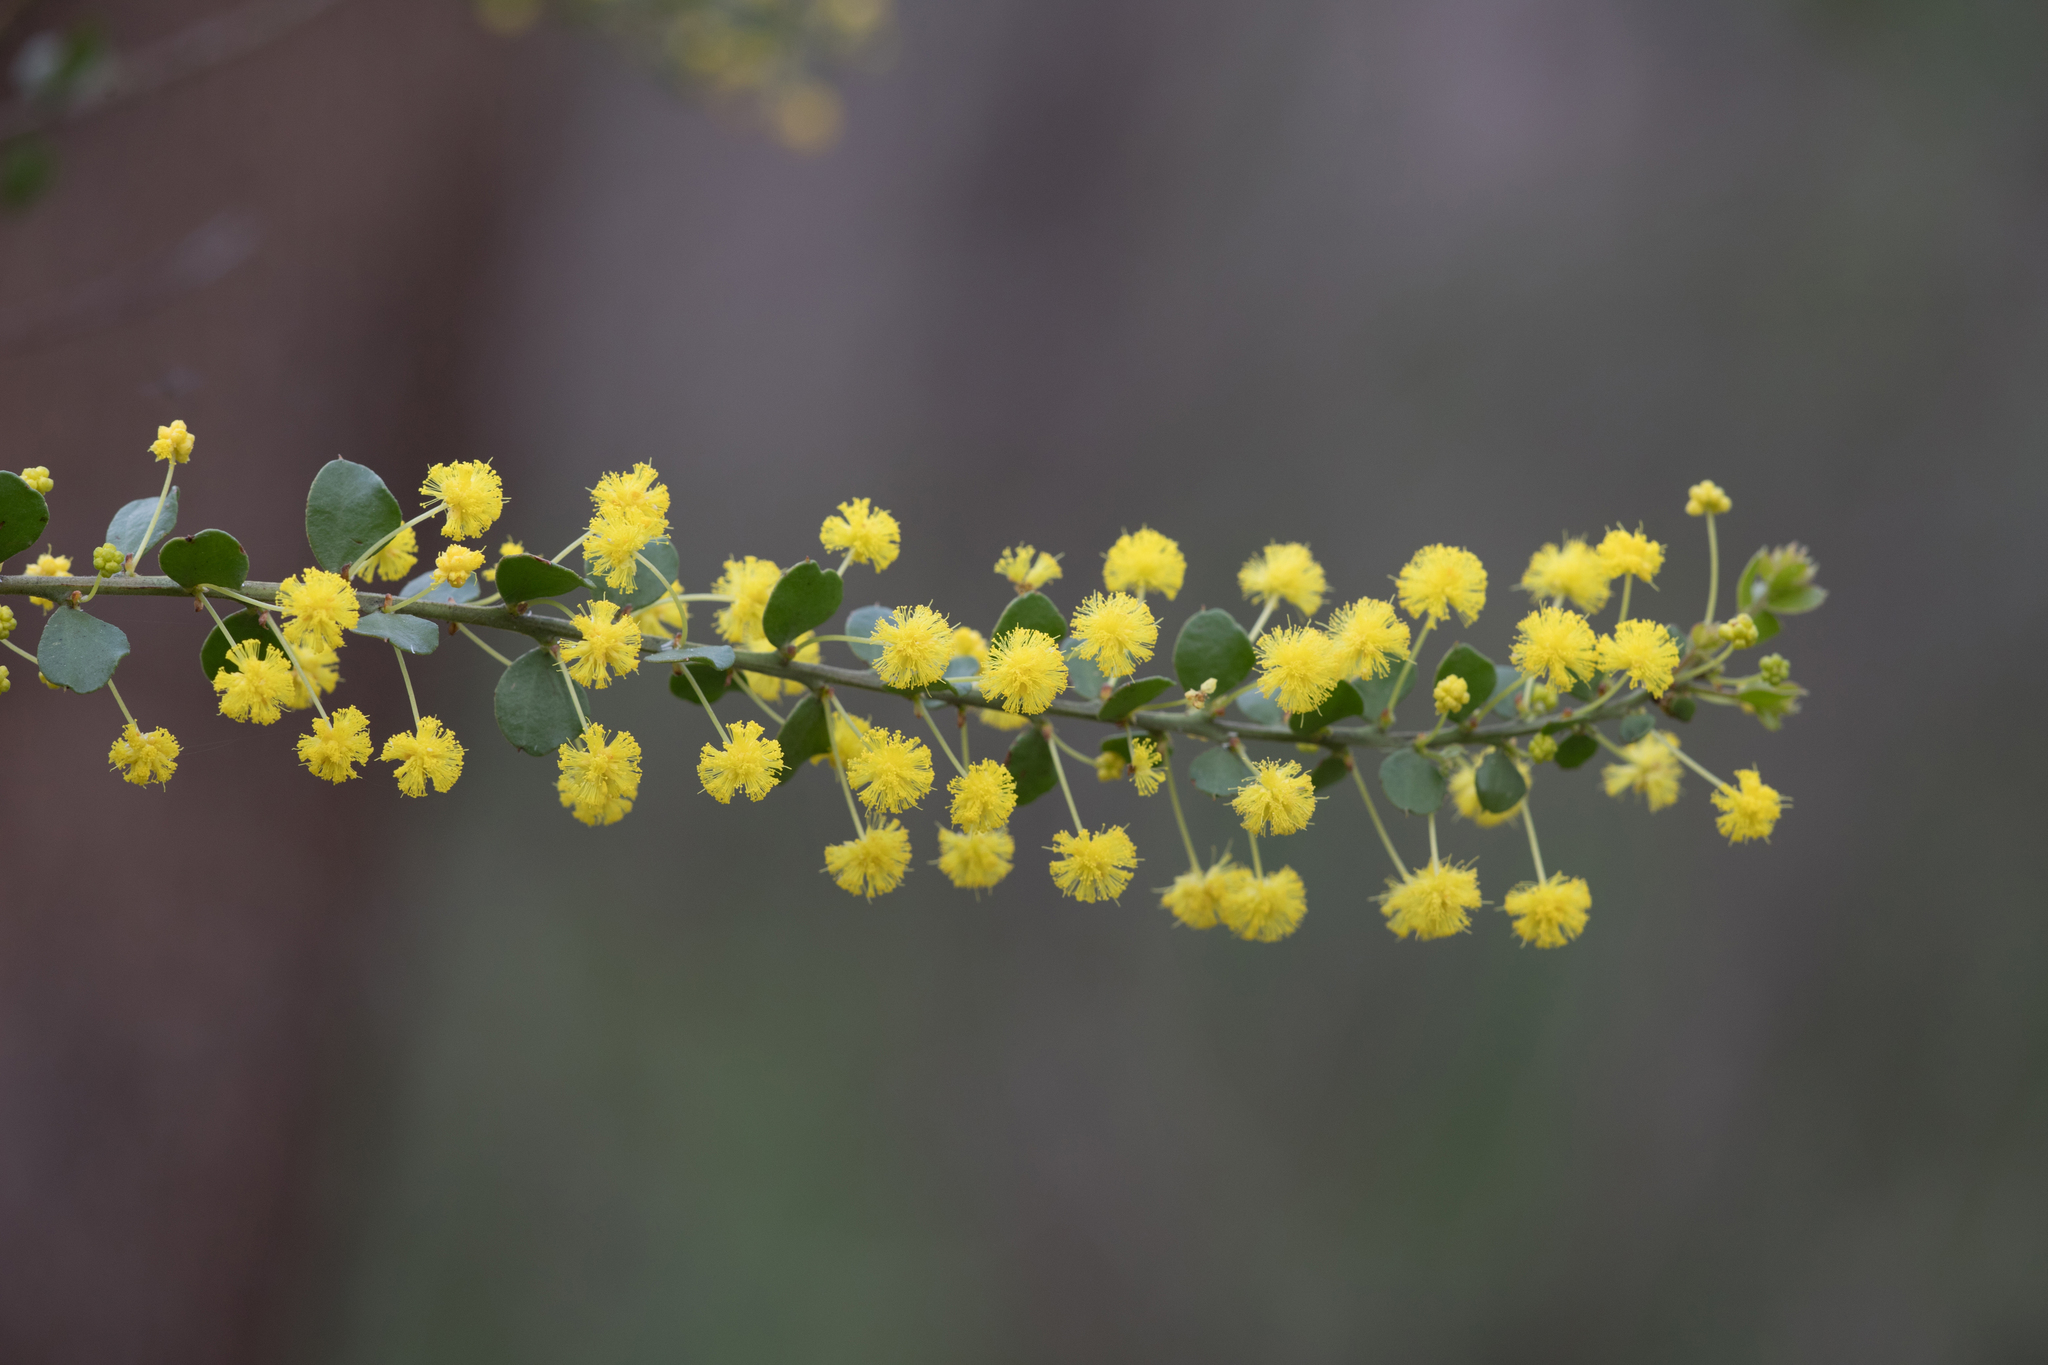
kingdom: Plantae
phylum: Tracheophyta
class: Magnoliopsida
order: Fabales
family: Fabaceae
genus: Acacia
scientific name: Acacia acinacea
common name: Gold-dust acacia
